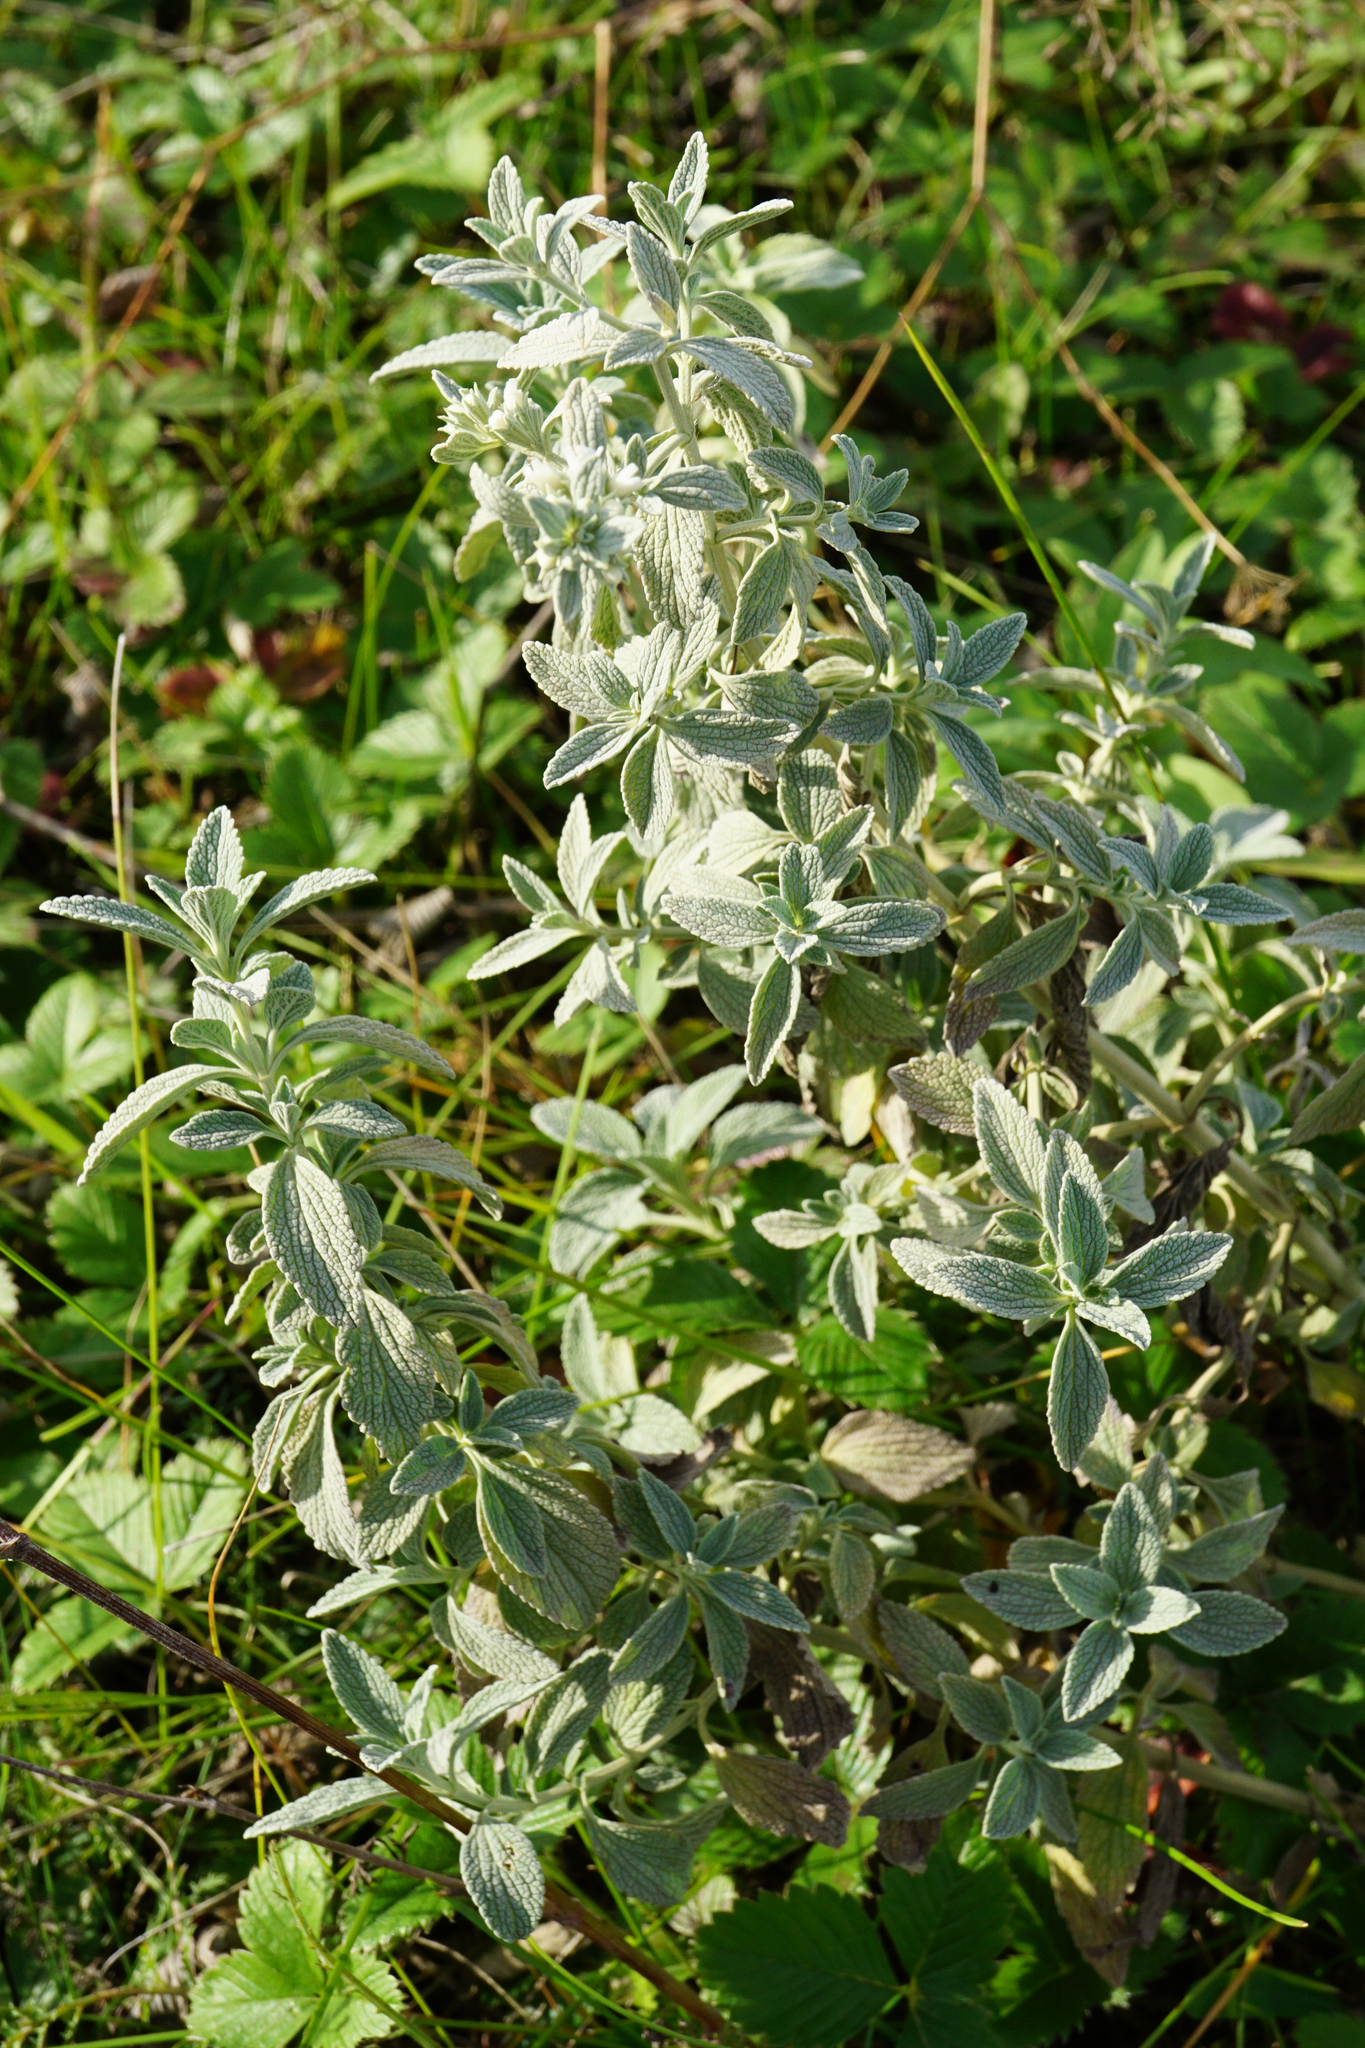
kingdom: Plantae
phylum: Tracheophyta
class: Magnoliopsida
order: Lamiales
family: Lamiaceae
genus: Marrubium
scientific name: Marrubium peregrinum
